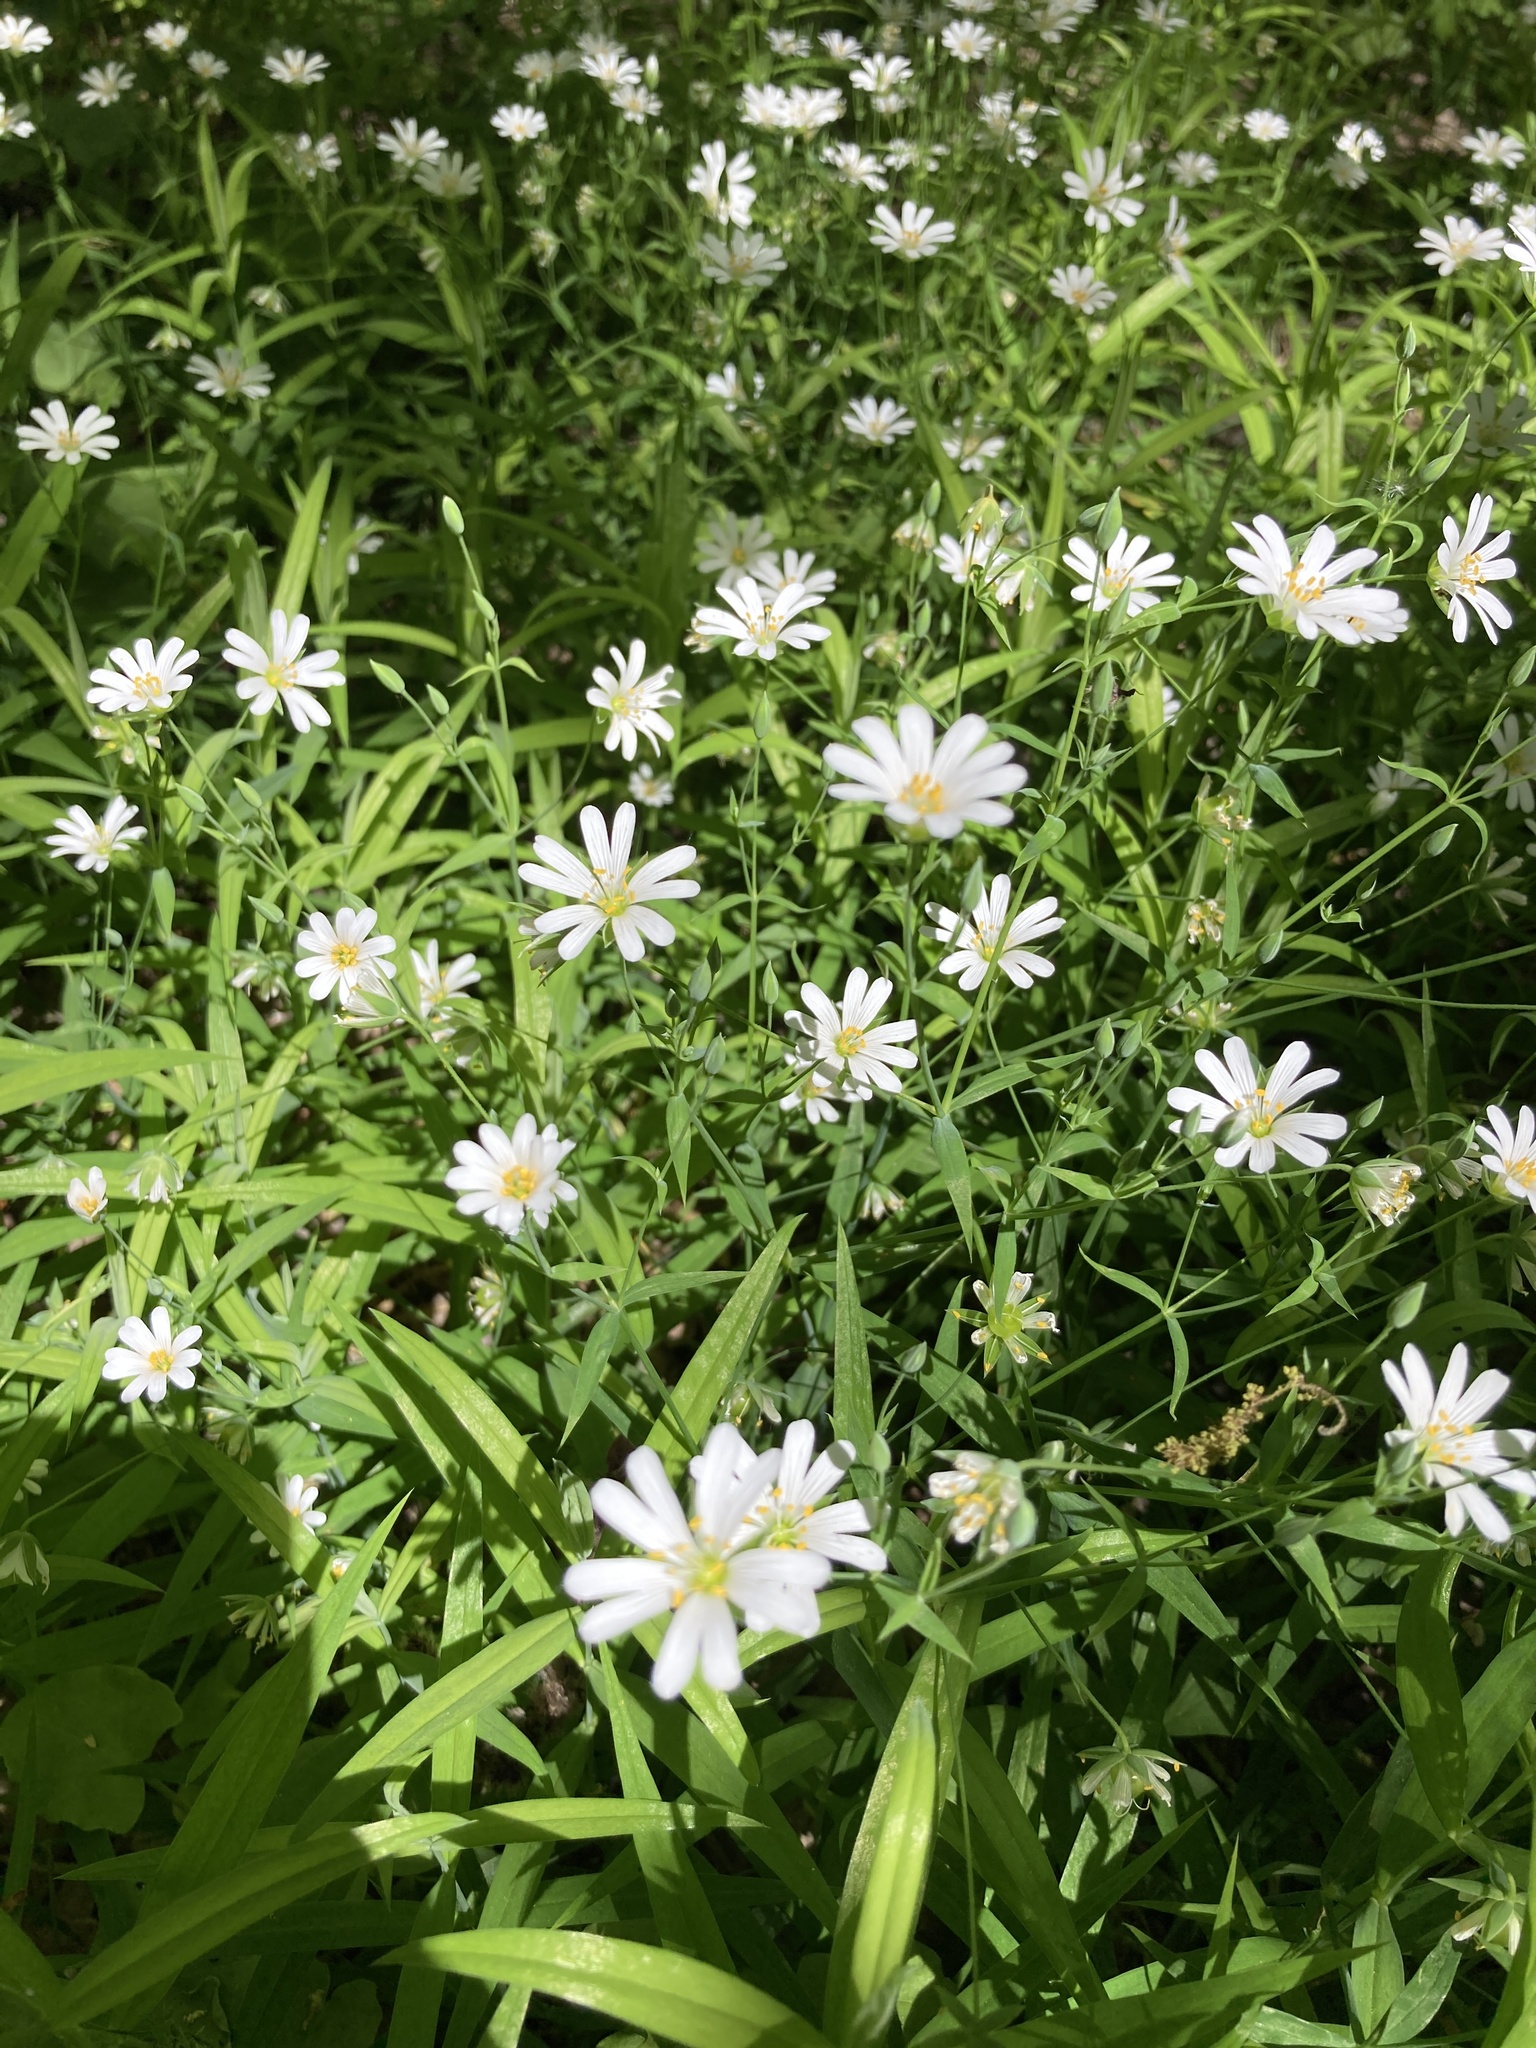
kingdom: Plantae
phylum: Tracheophyta
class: Magnoliopsida
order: Caryophyllales
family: Caryophyllaceae
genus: Rabelera
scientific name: Rabelera holostea
